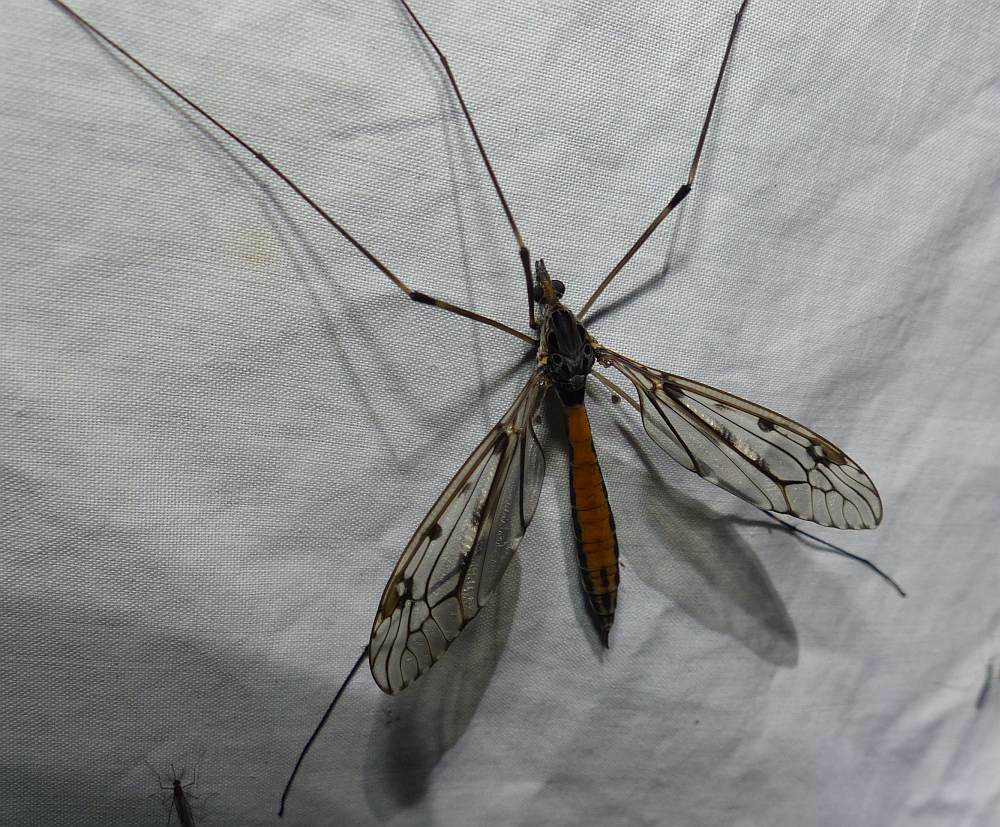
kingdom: Animalia
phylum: Arthropoda
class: Insecta
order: Diptera
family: Tipulidae
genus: Tipula
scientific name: Tipula abdominalis
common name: Giant crane fly
